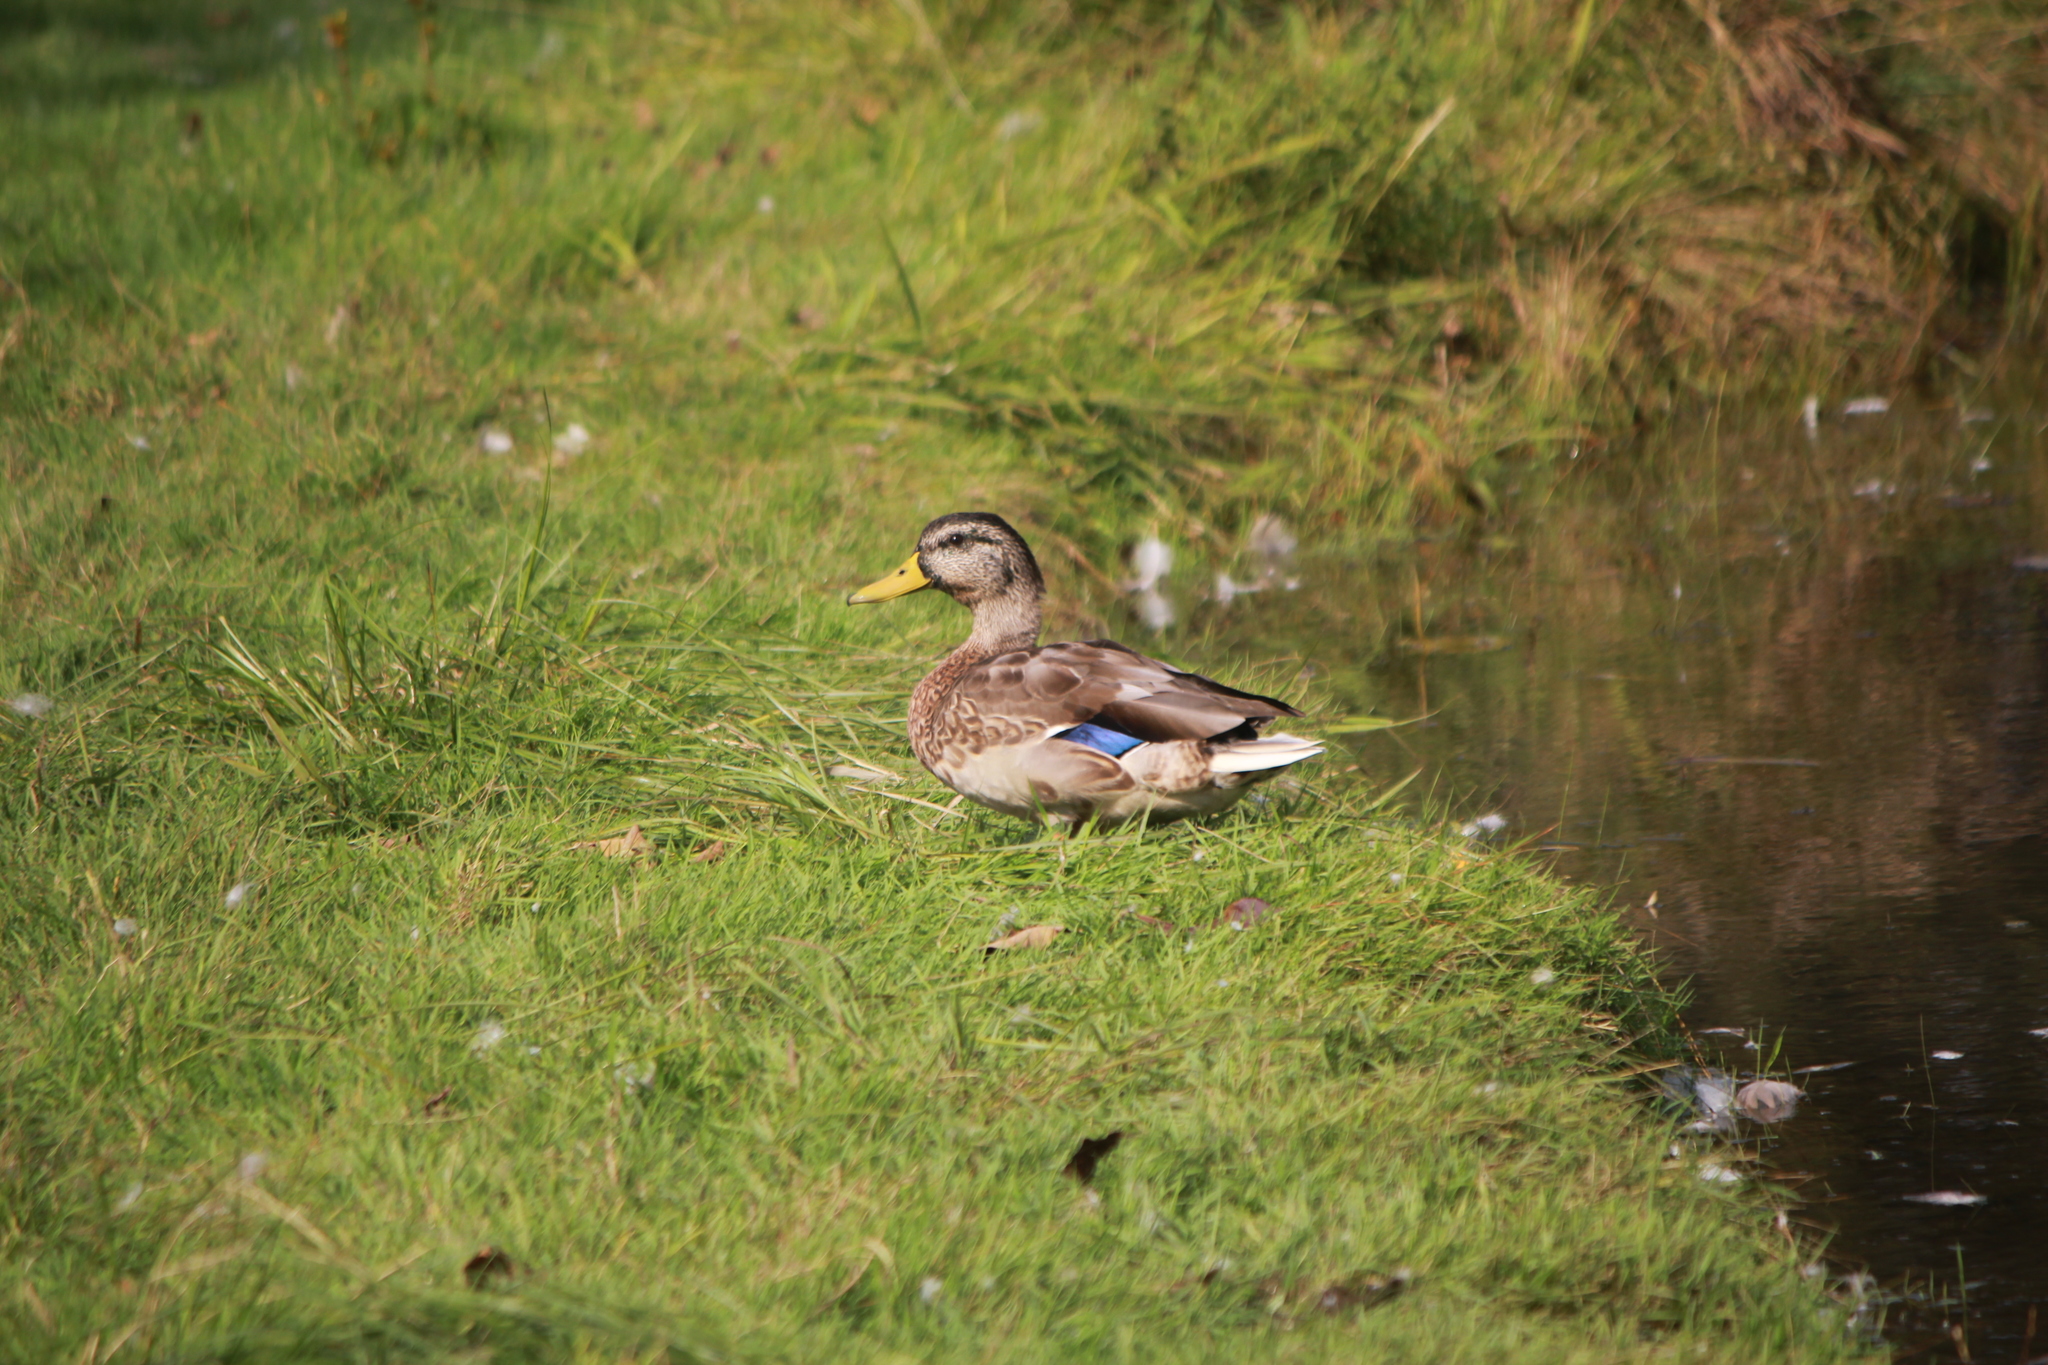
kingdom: Animalia
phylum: Chordata
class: Aves
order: Anseriformes
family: Anatidae
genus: Anas
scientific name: Anas platyrhynchos
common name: Mallard
